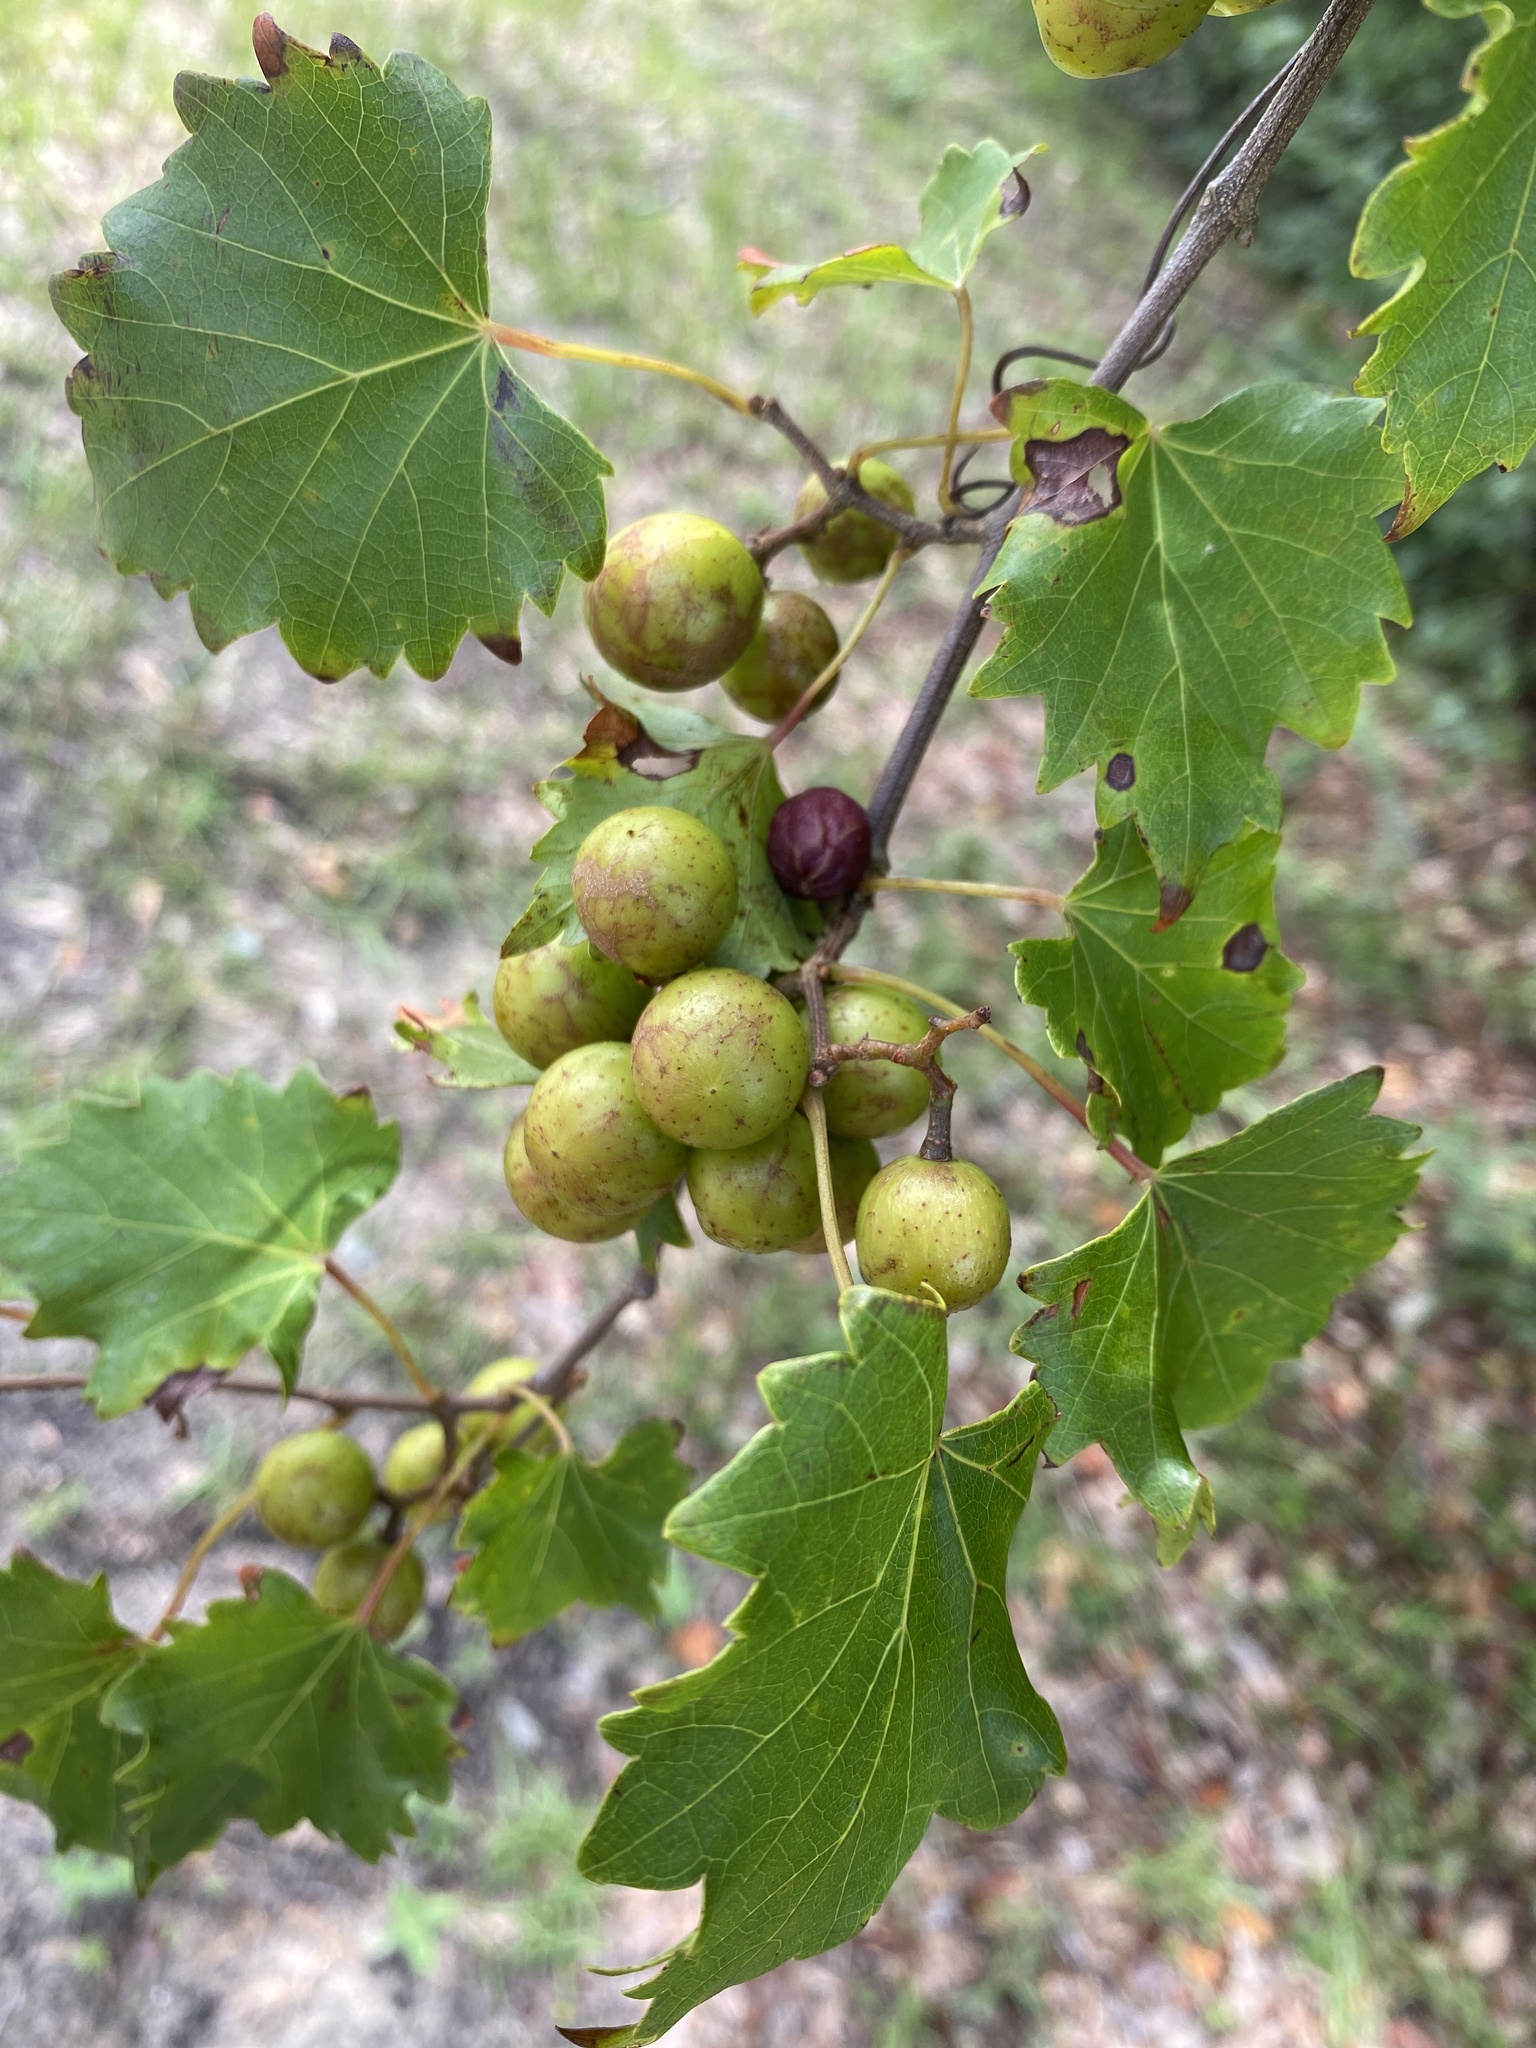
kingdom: Plantae
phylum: Tracheophyta
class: Magnoliopsida
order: Vitales
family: Vitaceae
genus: Vitis
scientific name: Vitis rotundifolia
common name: Muscadine grape
